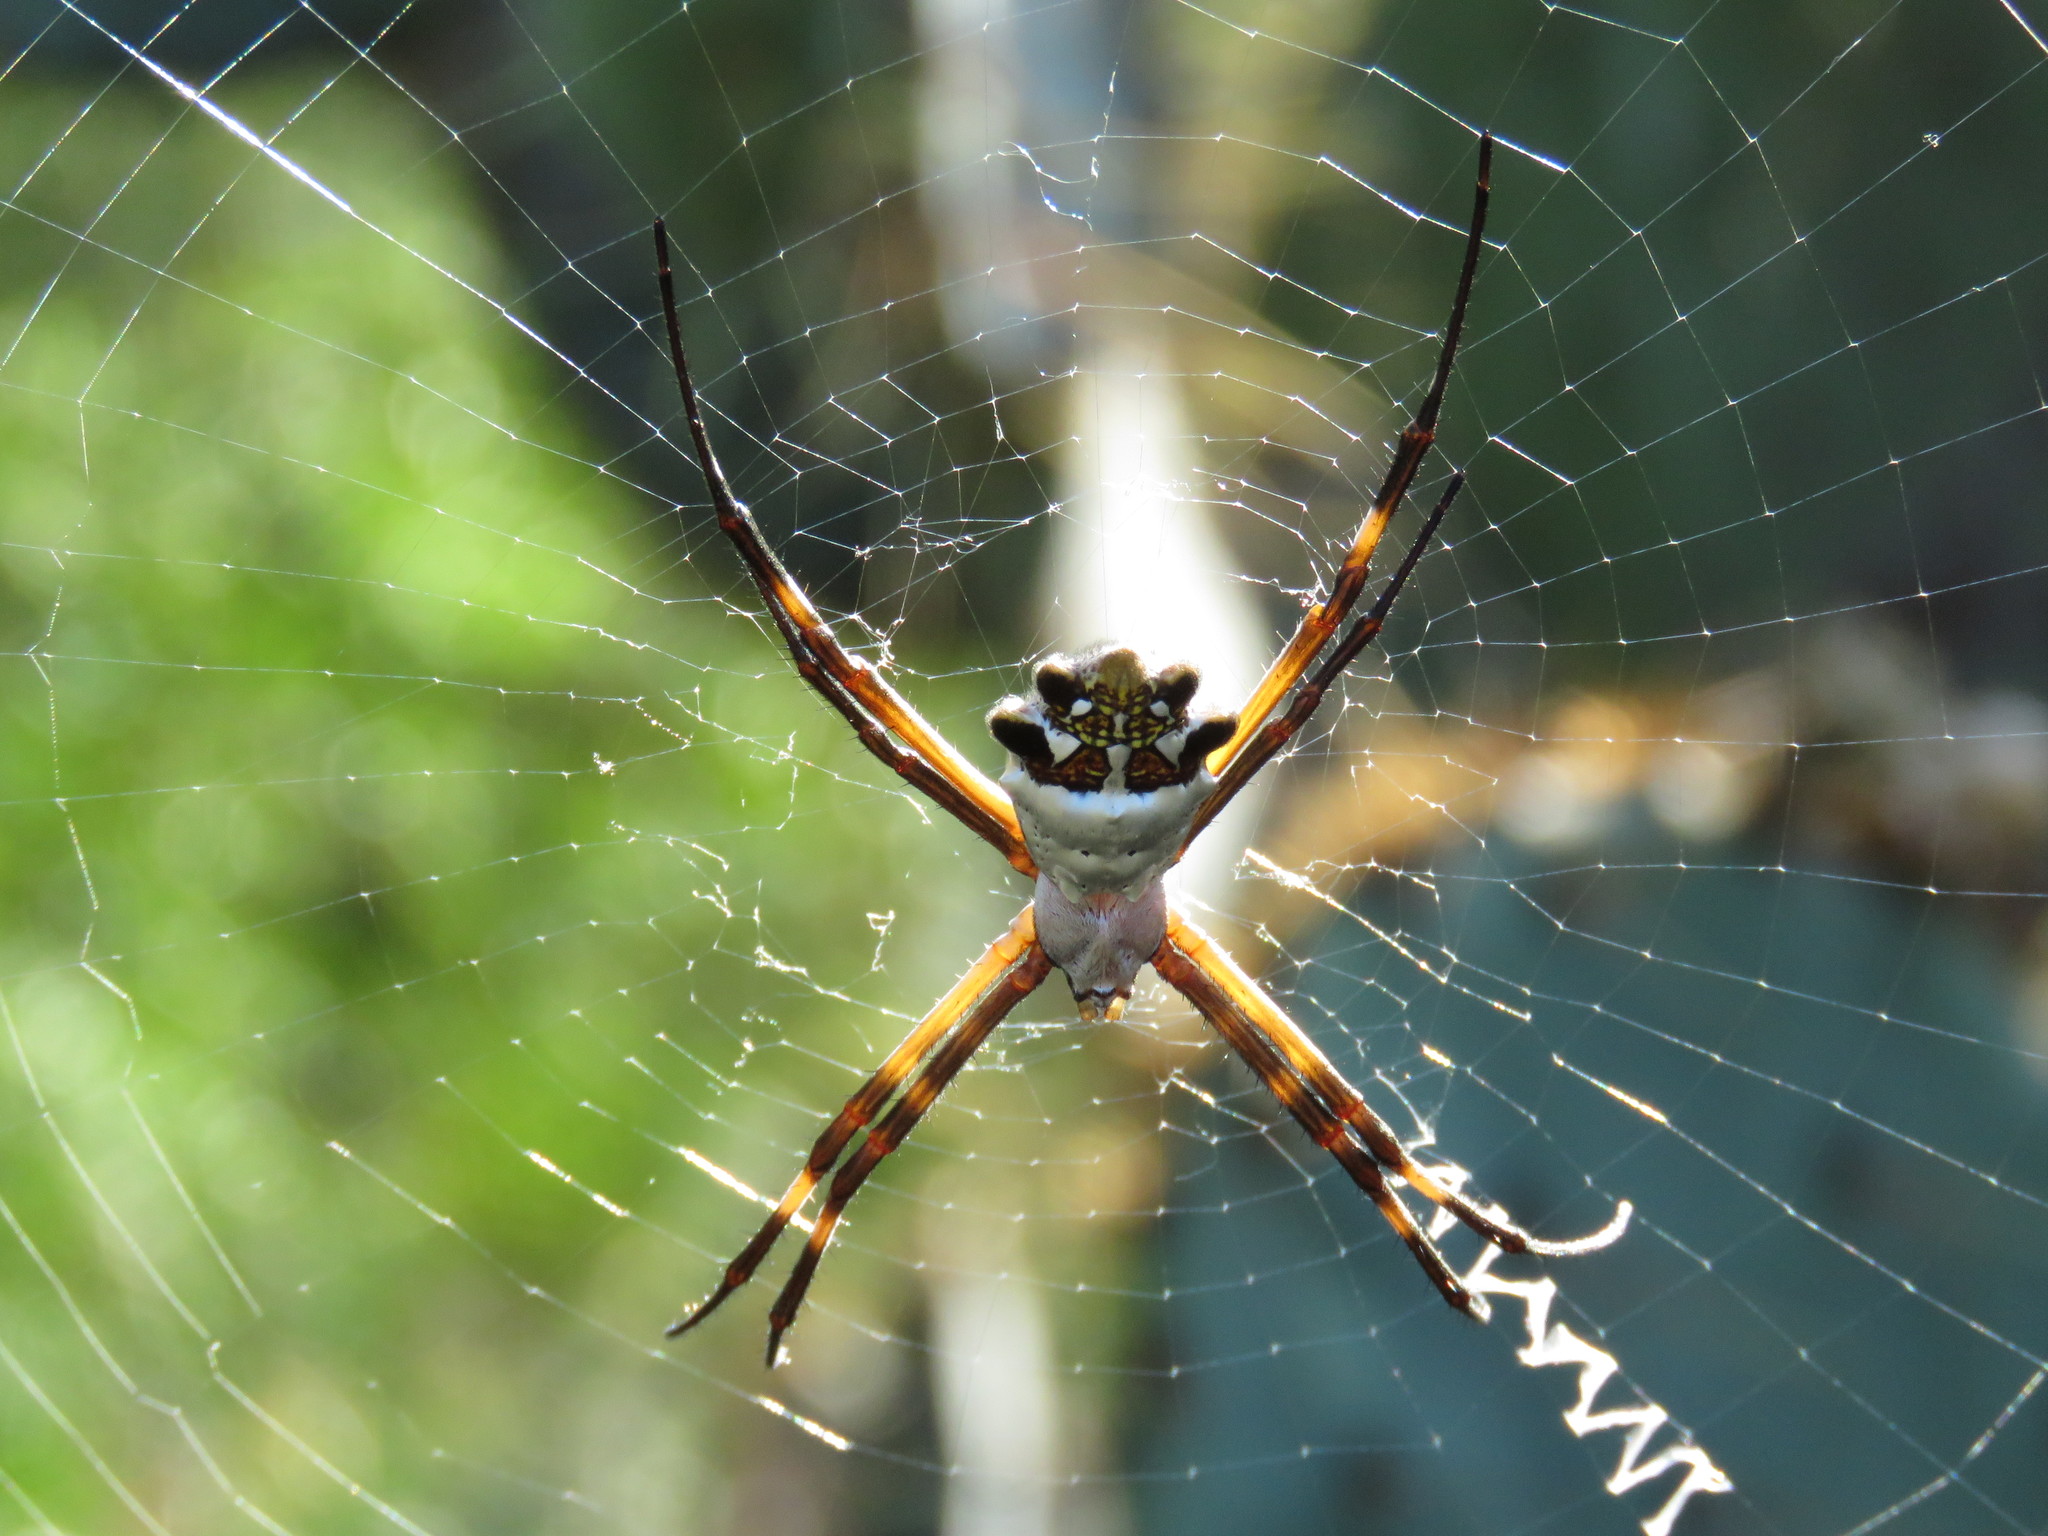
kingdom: Animalia
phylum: Arthropoda
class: Arachnida
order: Araneae
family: Araneidae
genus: Argiope
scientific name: Argiope argentata
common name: Orb weavers
